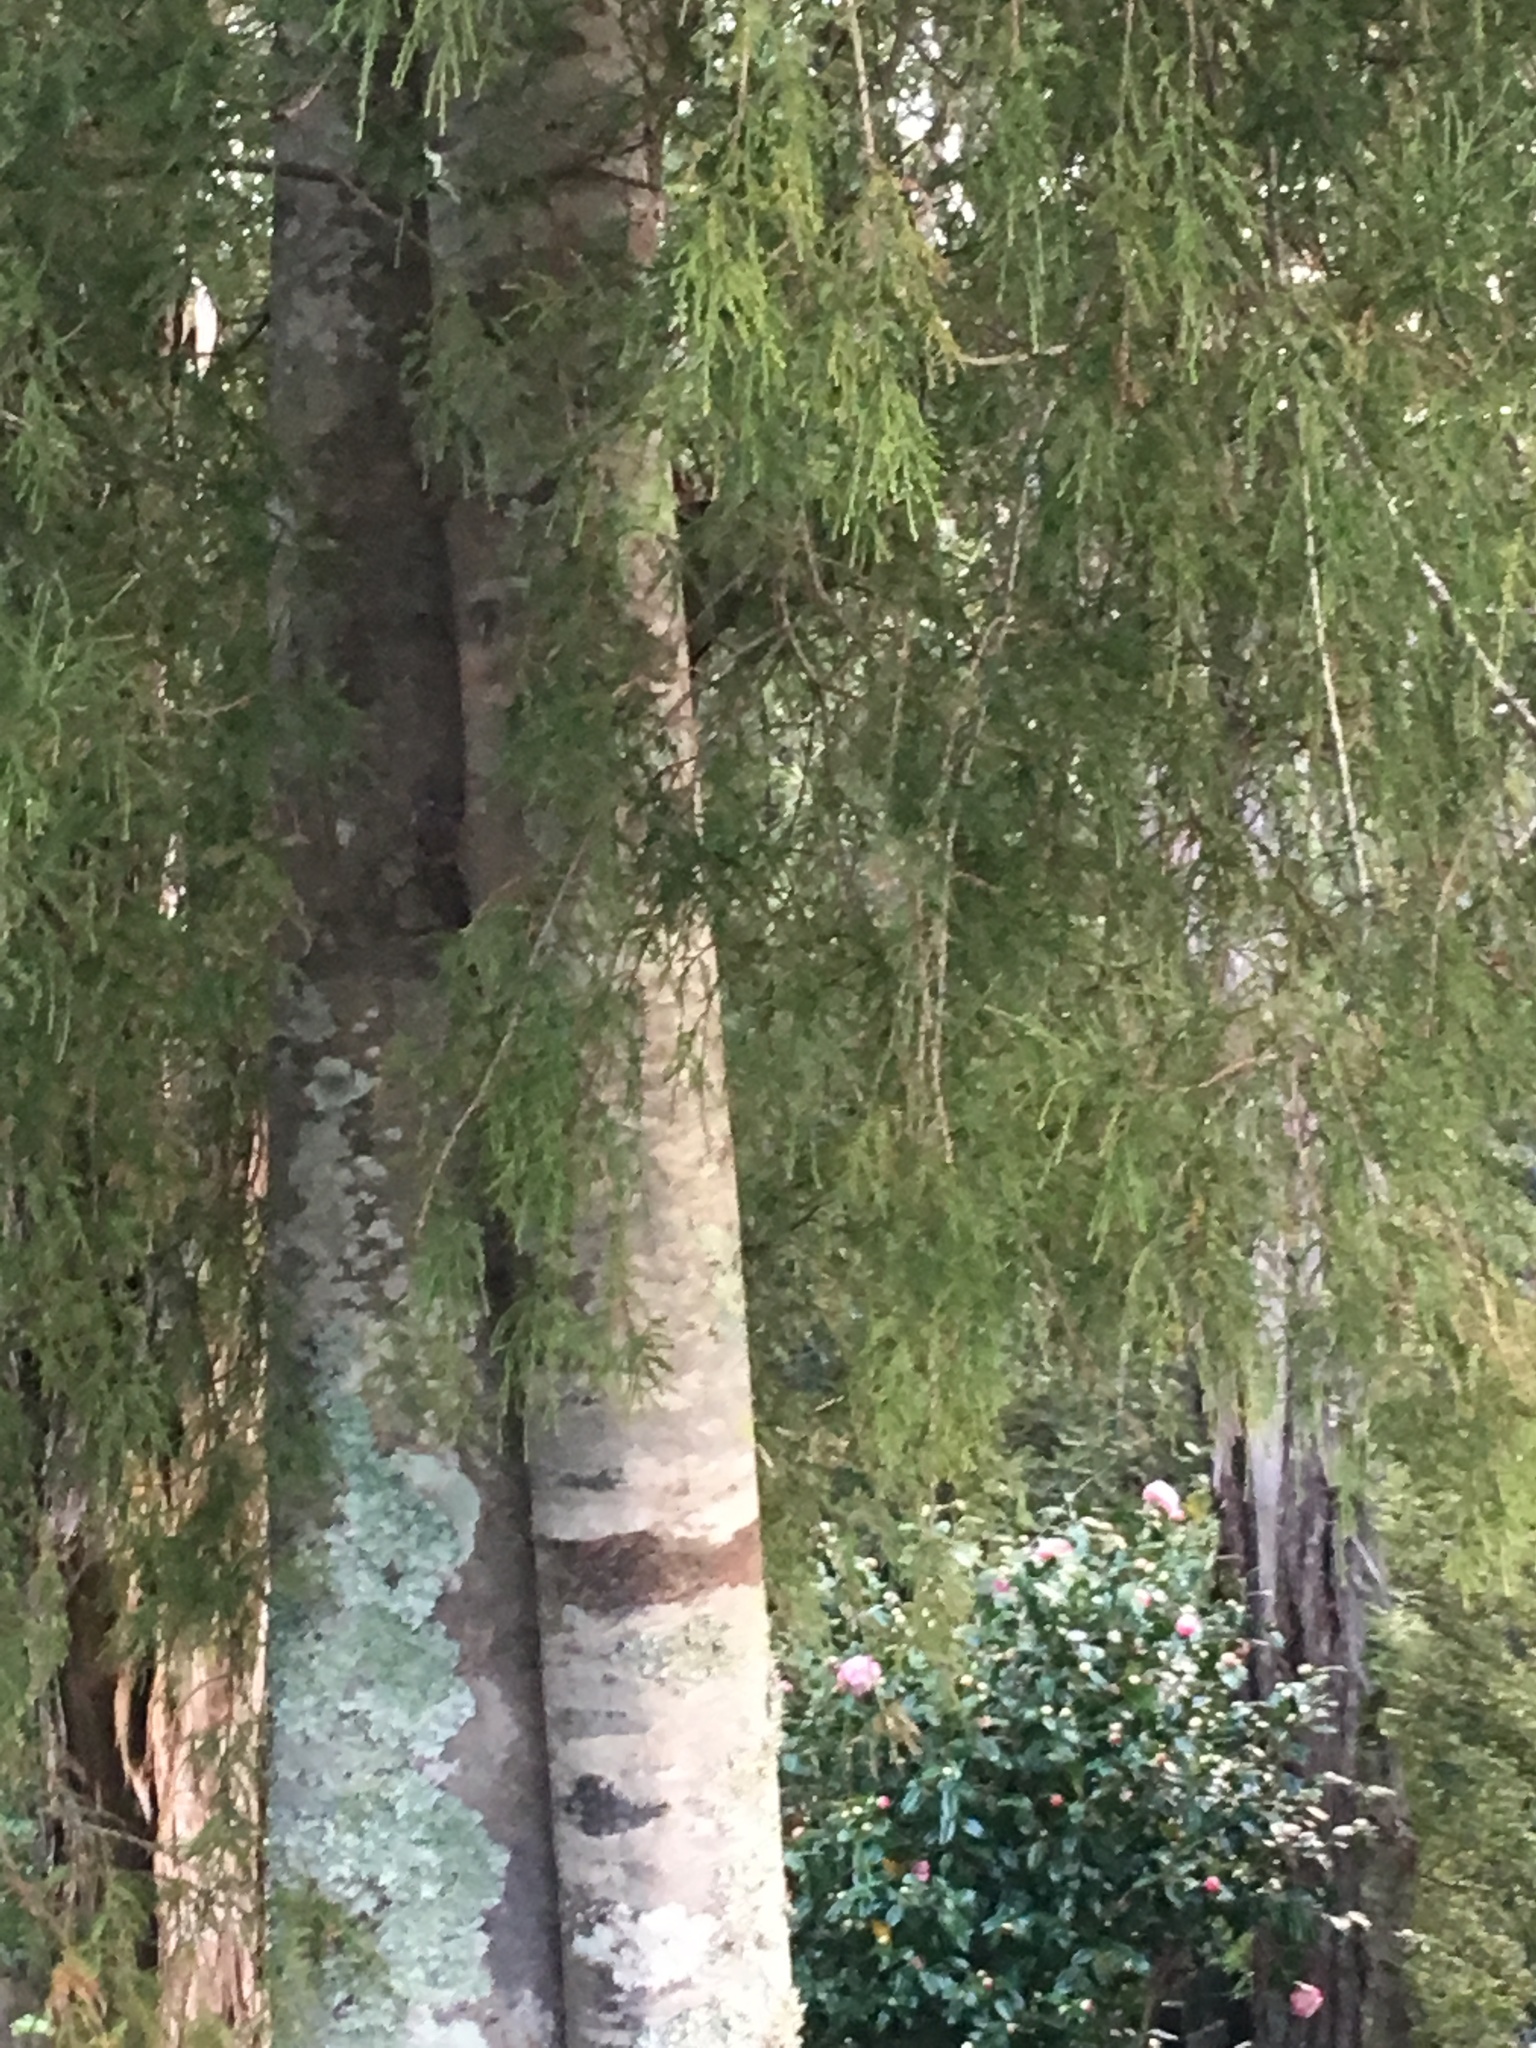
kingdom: Plantae
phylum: Tracheophyta
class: Pinopsida
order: Pinales
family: Podocarpaceae
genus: Dacrydium
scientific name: Dacrydium cupressinum
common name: Red pine
